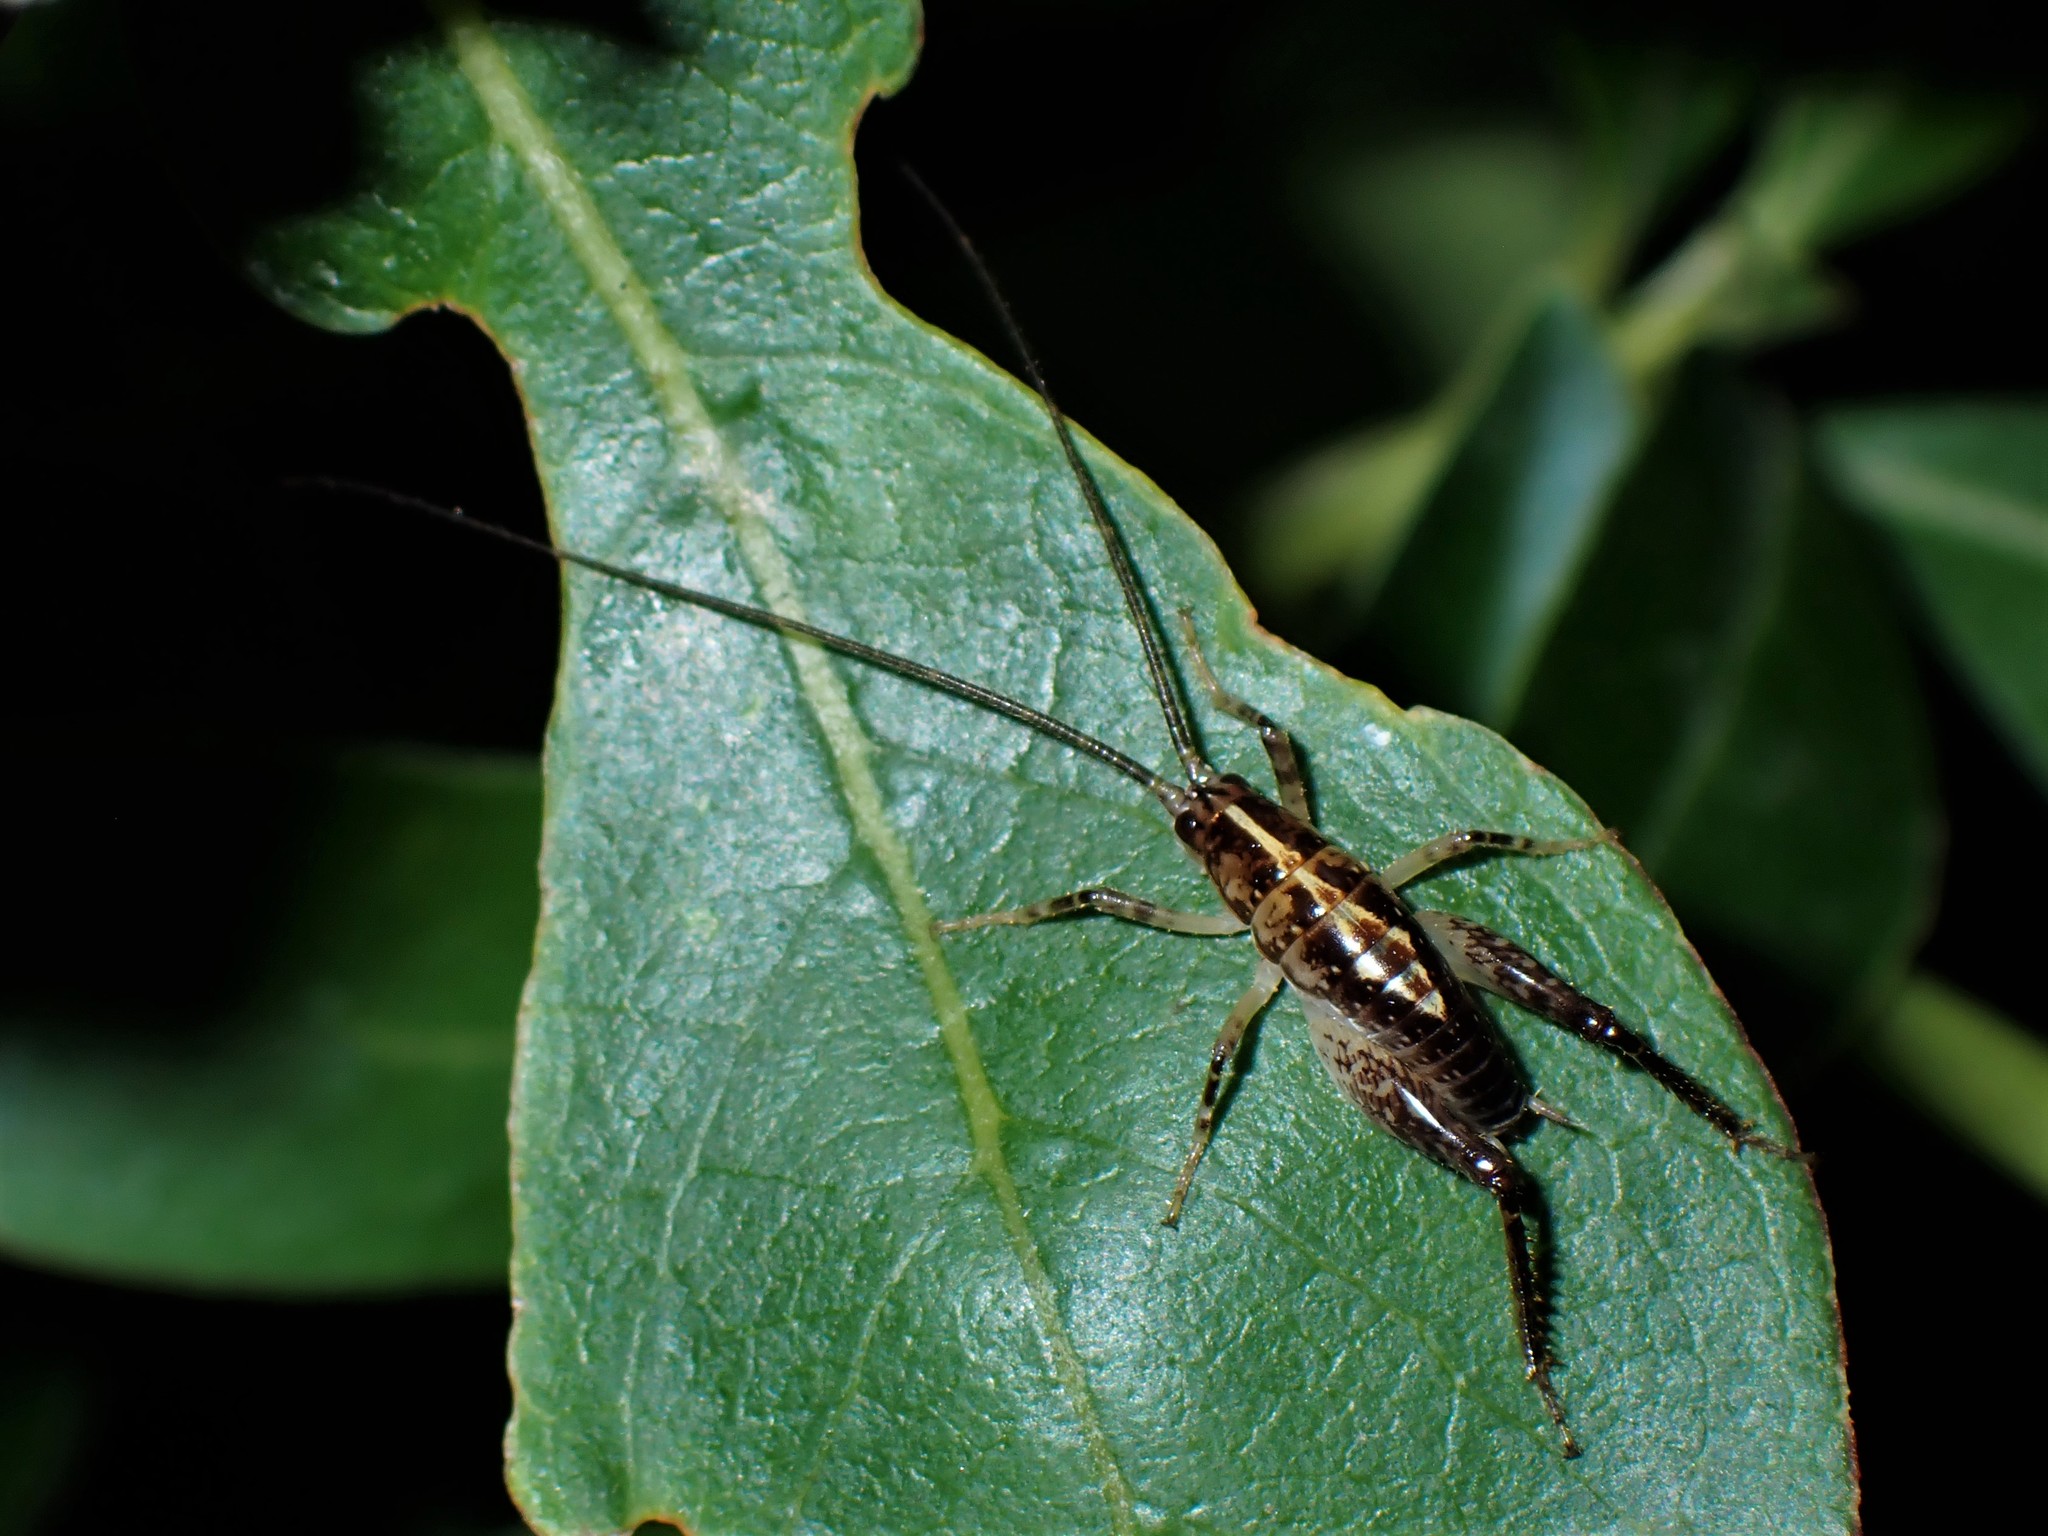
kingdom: Animalia
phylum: Arthropoda
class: Insecta
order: Orthoptera
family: Rhaphidophoridae
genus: Talitropsis
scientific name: Talitropsis sedilloti
